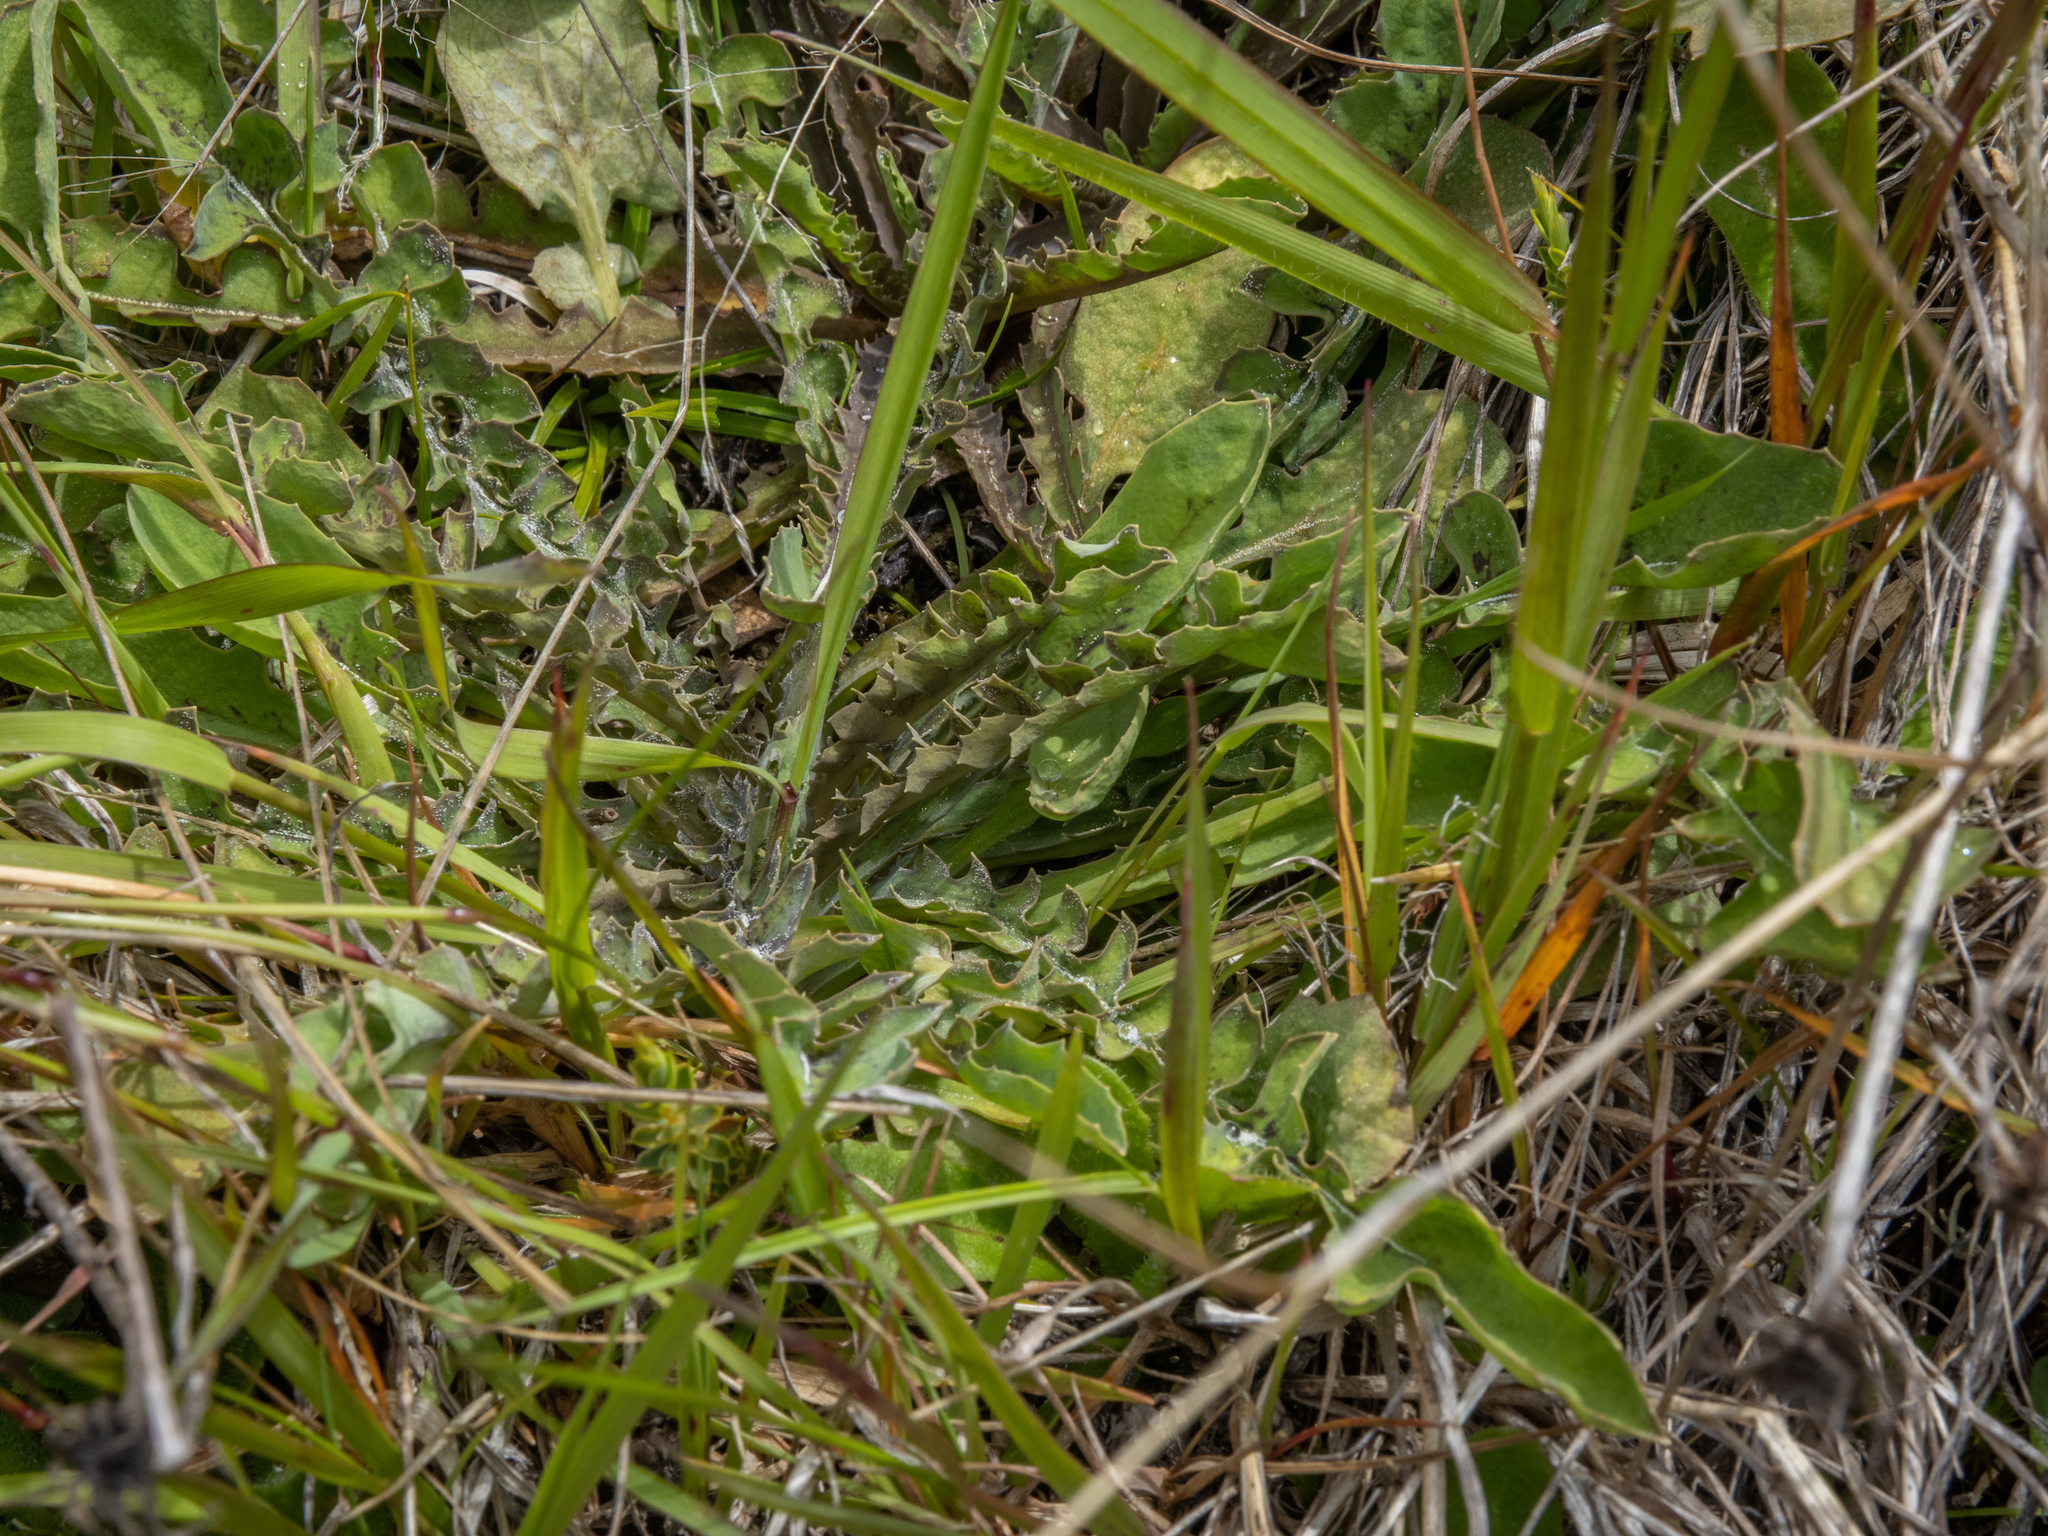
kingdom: Plantae
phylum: Tracheophyta
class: Magnoliopsida
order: Asterales
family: Asteraceae
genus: Sonchus
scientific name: Sonchus novae-zelandiae
